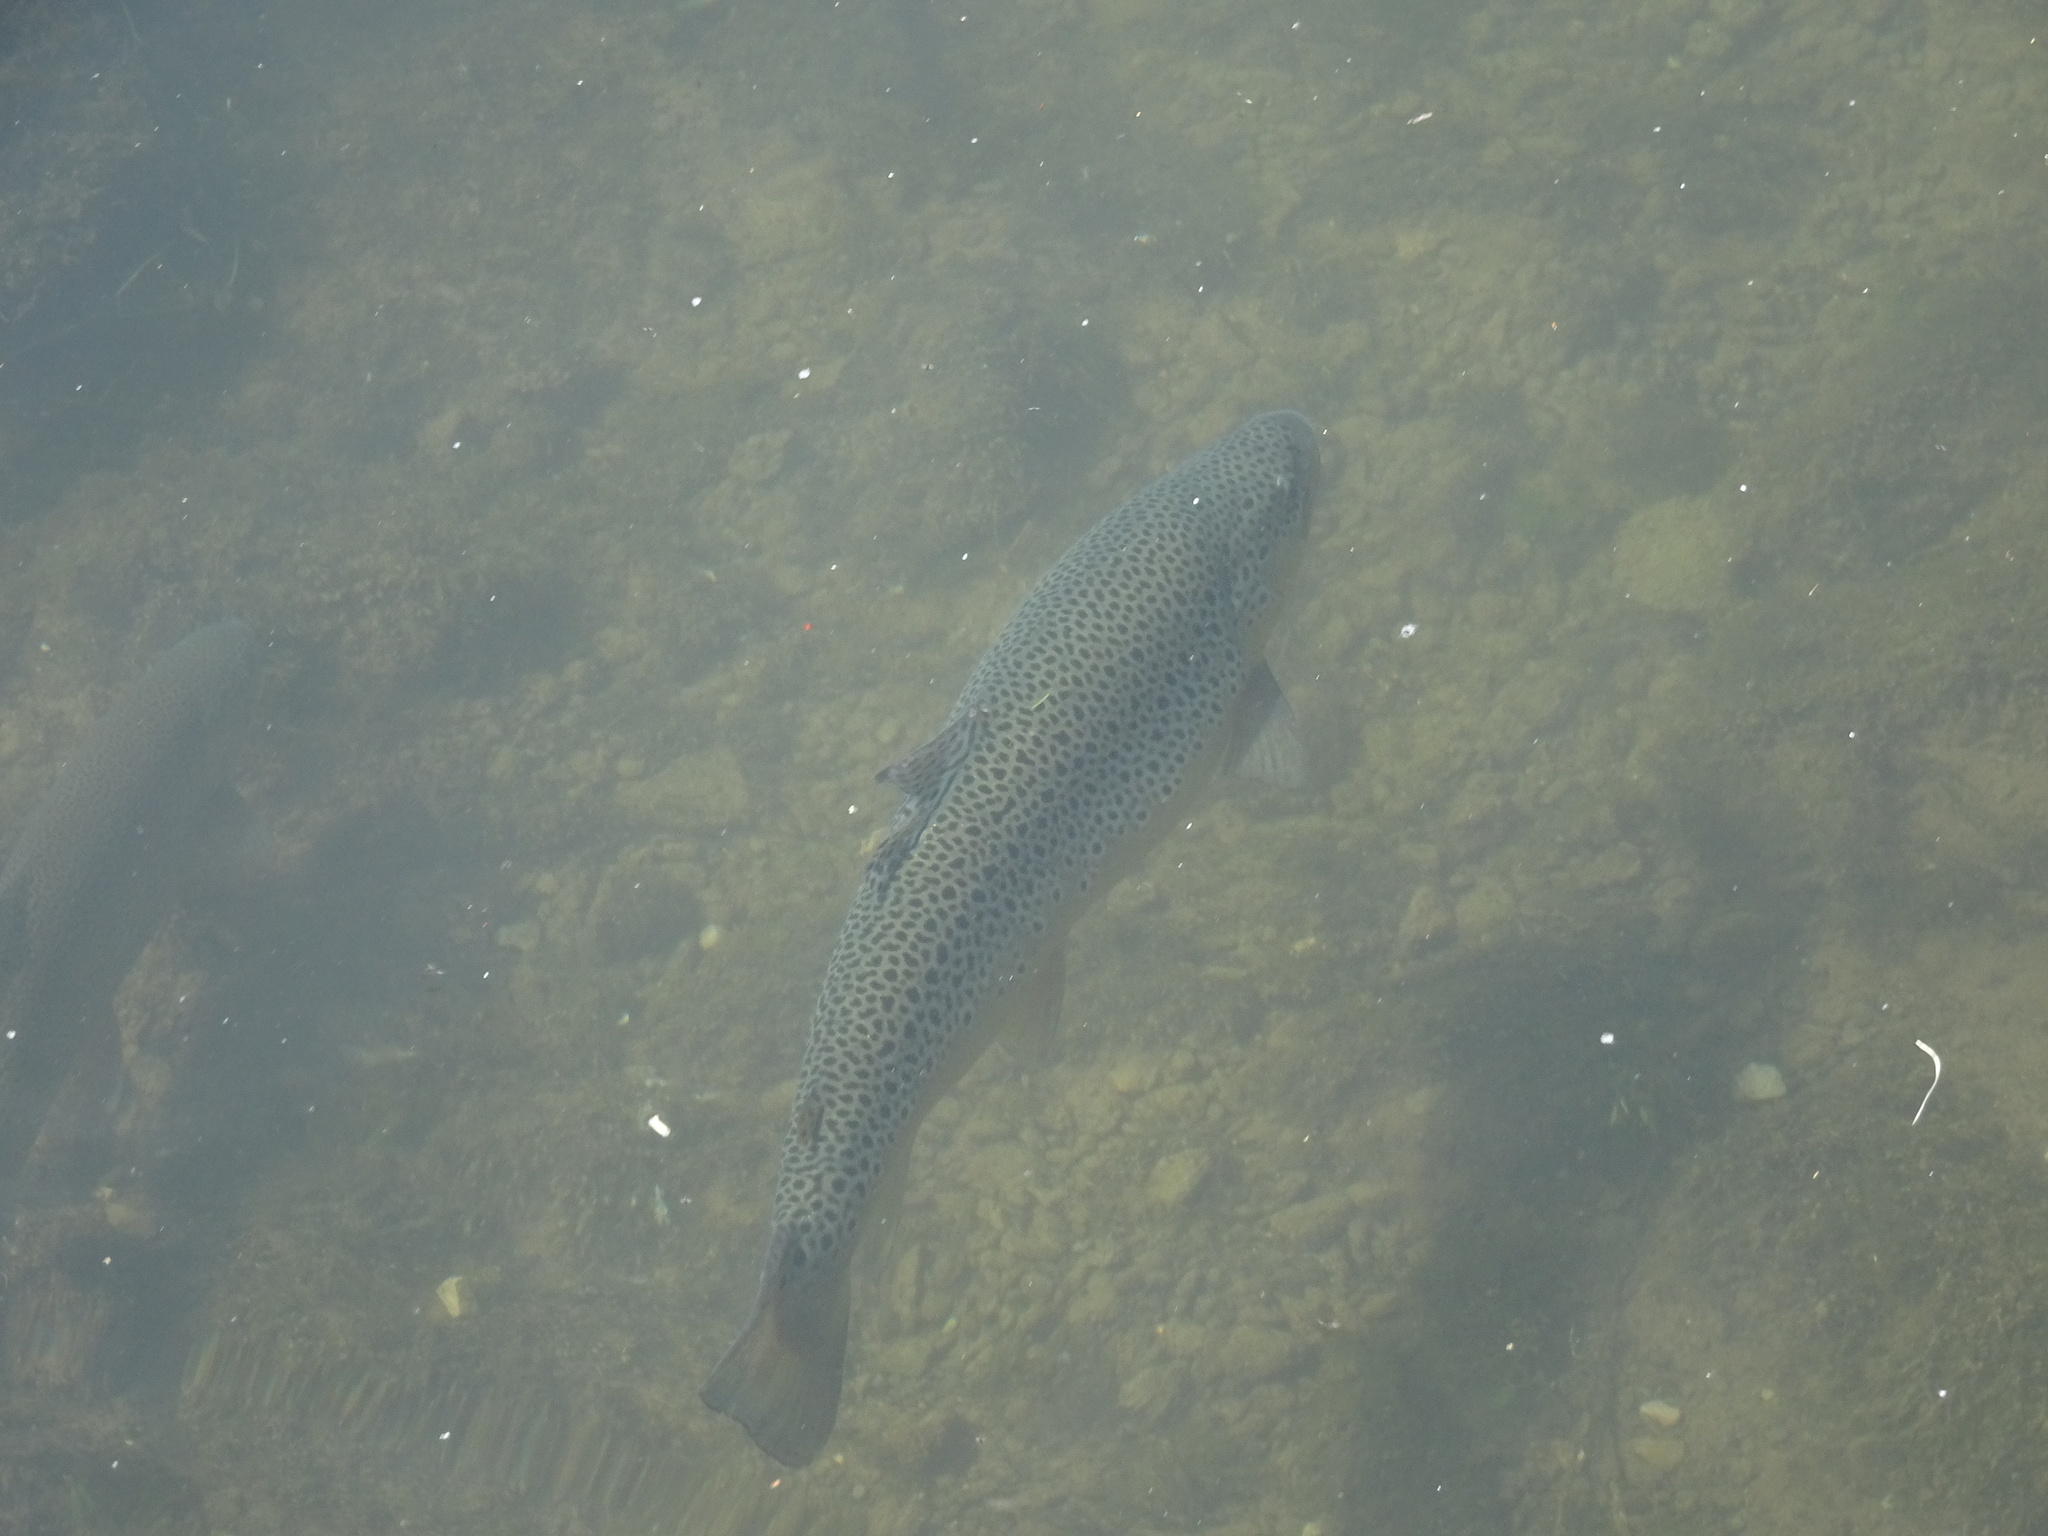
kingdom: Animalia
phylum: Chordata
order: Salmoniformes
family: Salmonidae
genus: Salmo
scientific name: Salmo trutta
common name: Brown trout
